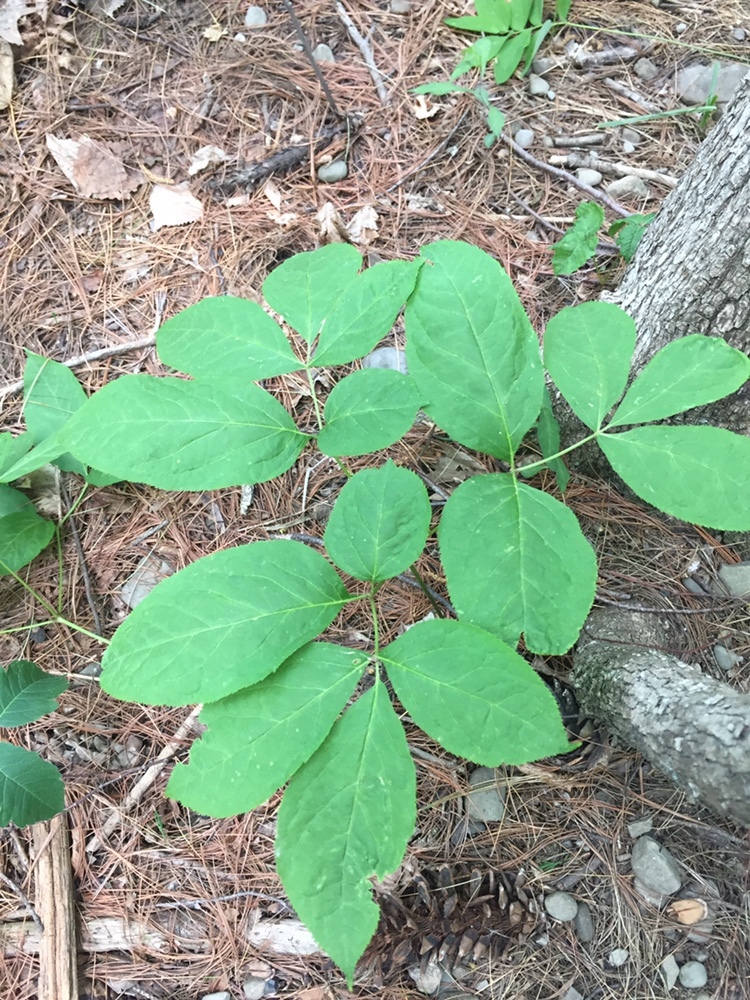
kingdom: Plantae
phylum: Tracheophyta
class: Magnoliopsida
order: Apiales
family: Araliaceae
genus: Aralia
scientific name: Aralia nudicaulis
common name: Wild sarsaparilla
